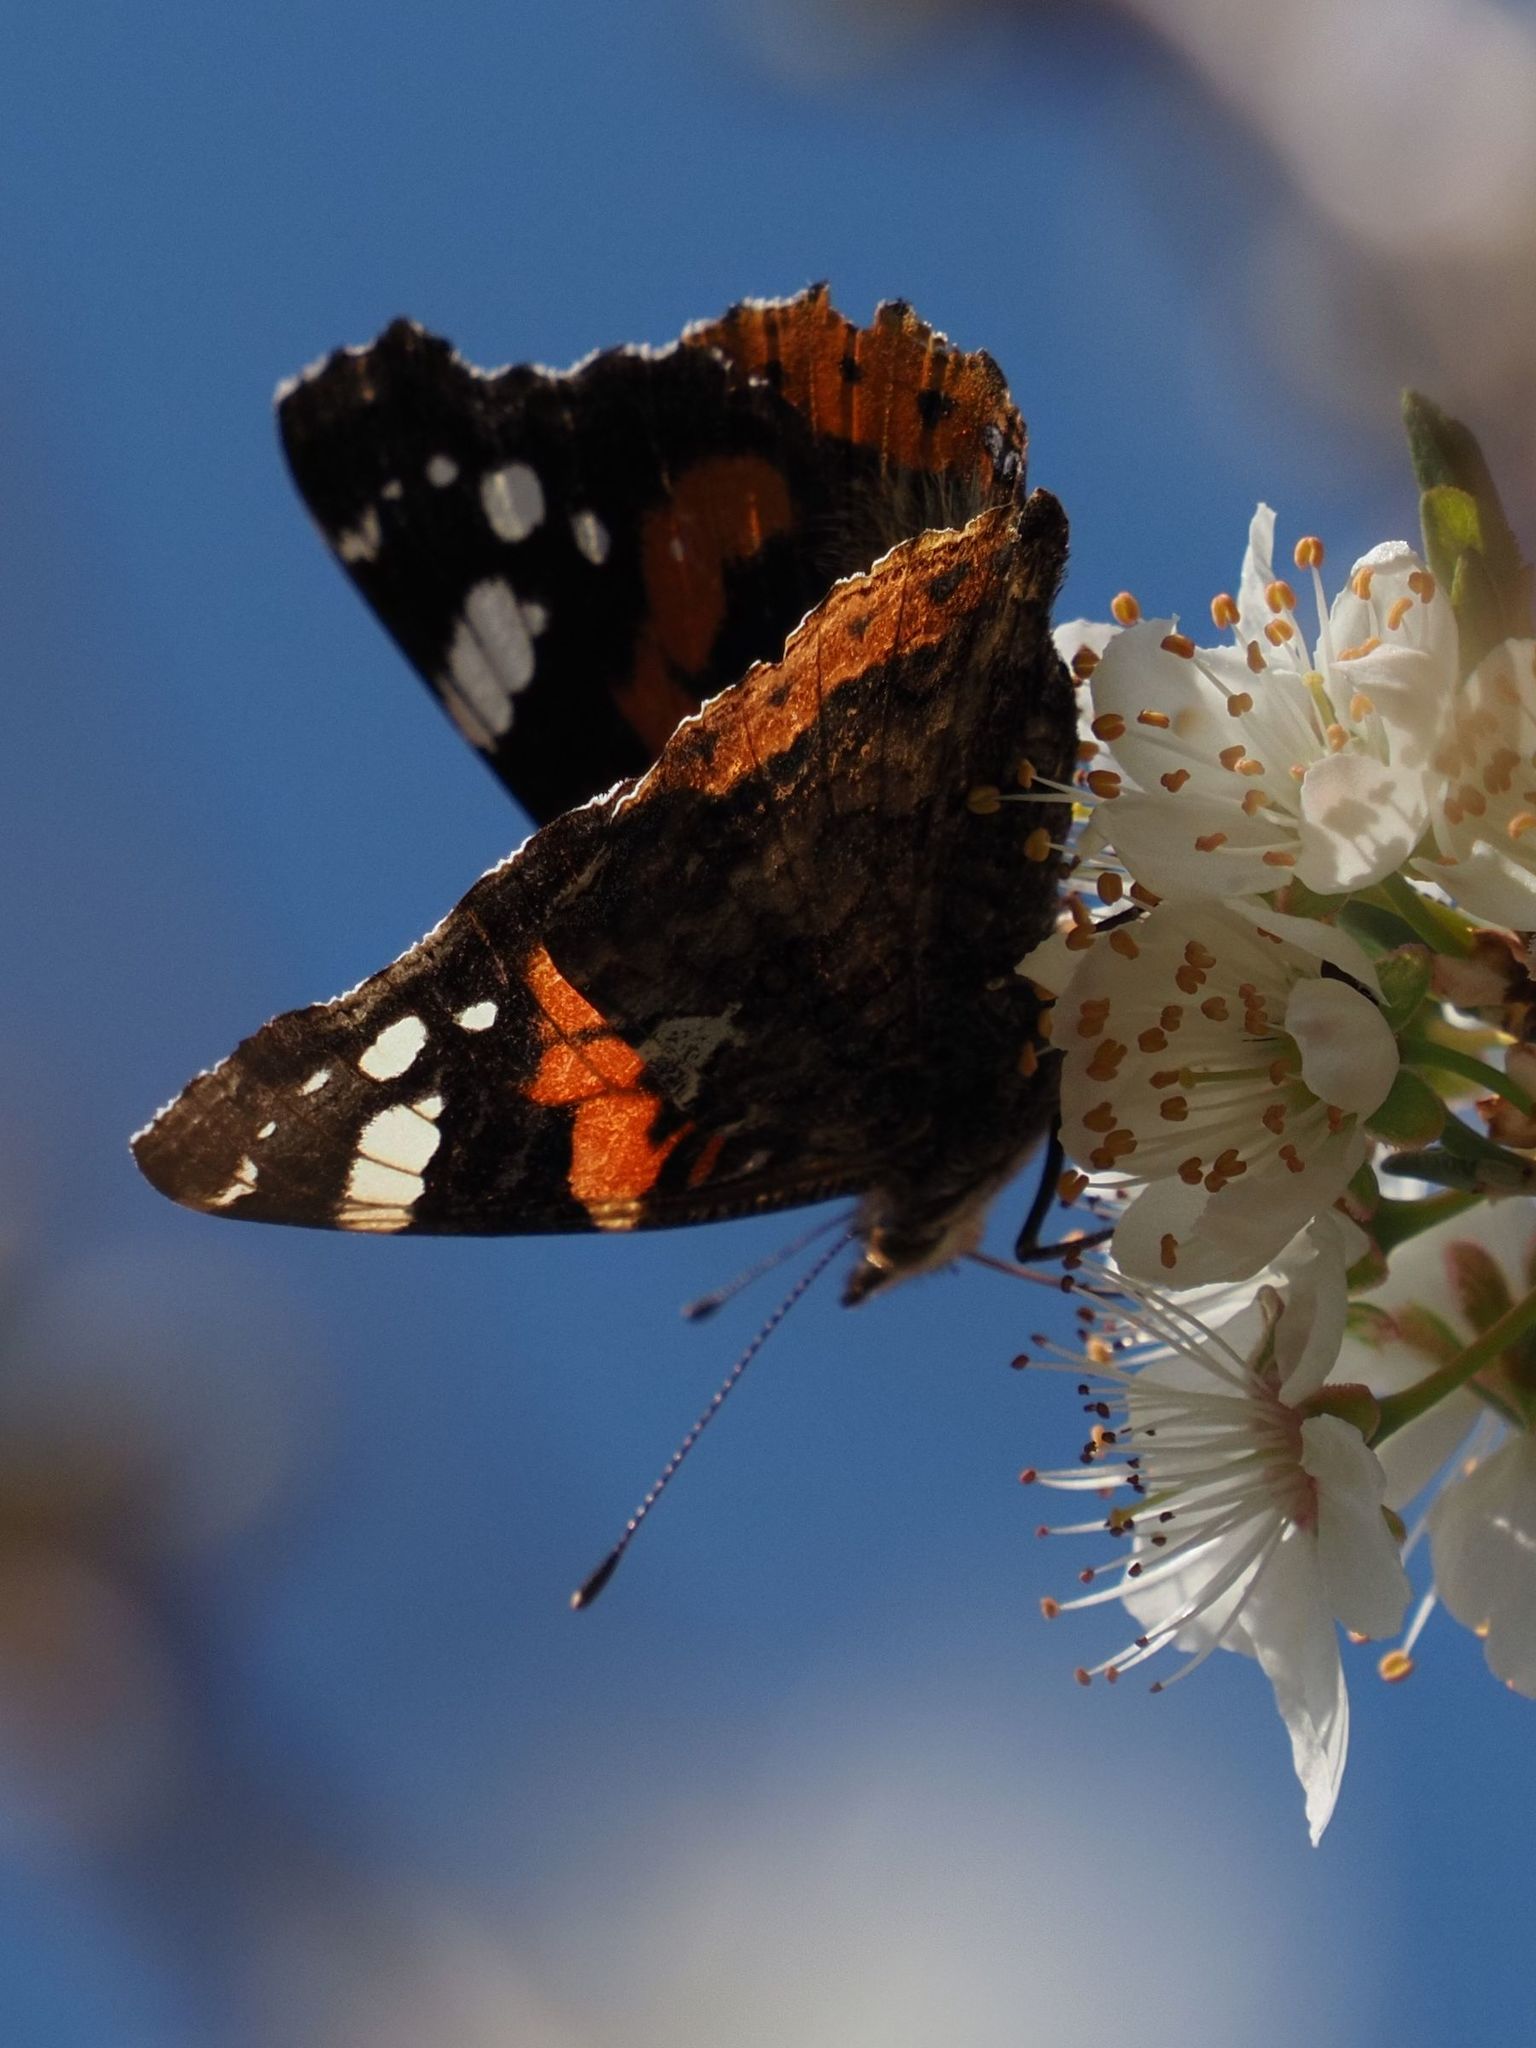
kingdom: Animalia
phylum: Arthropoda
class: Insecta
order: Lepidoptera
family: Nymphalidae
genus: Vanessa
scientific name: Vanessa atalanta
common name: Red admiral
